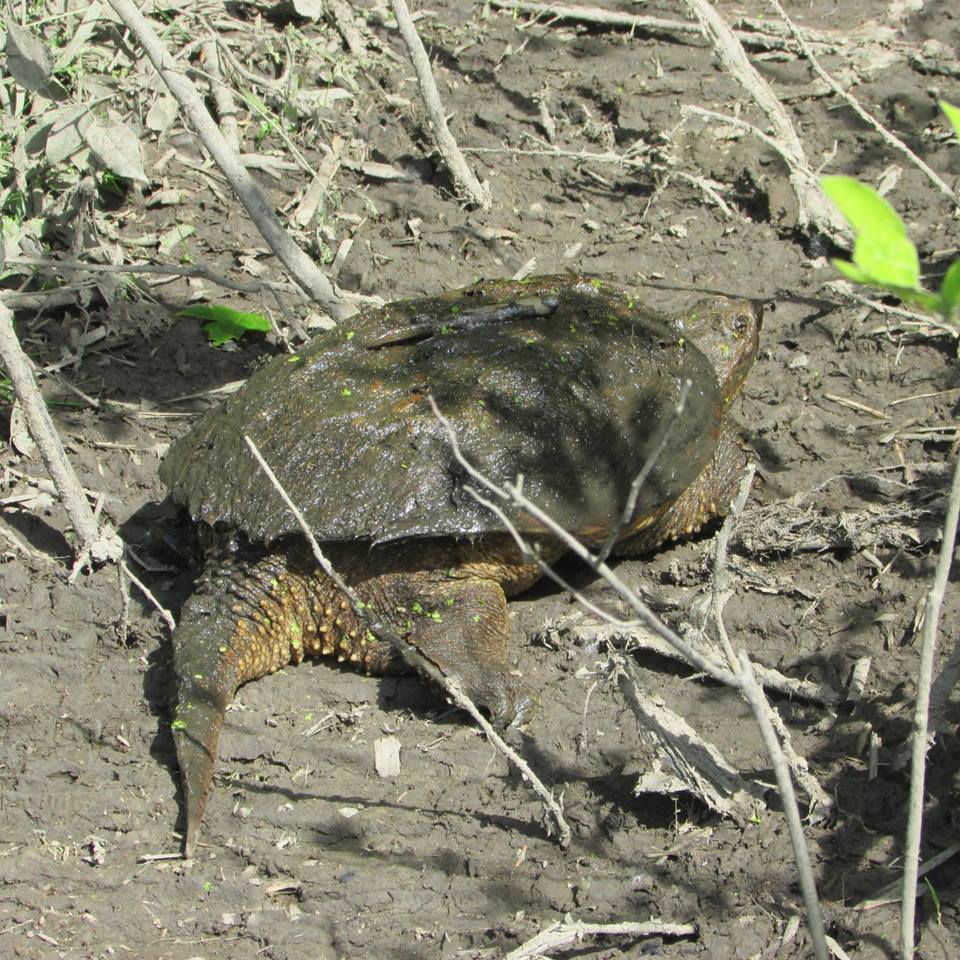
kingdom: Animalia
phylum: Chordata
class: Testudines
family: Chelydridae
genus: Chelydra
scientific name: Chelydra serpentina
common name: Common snapping turtle
